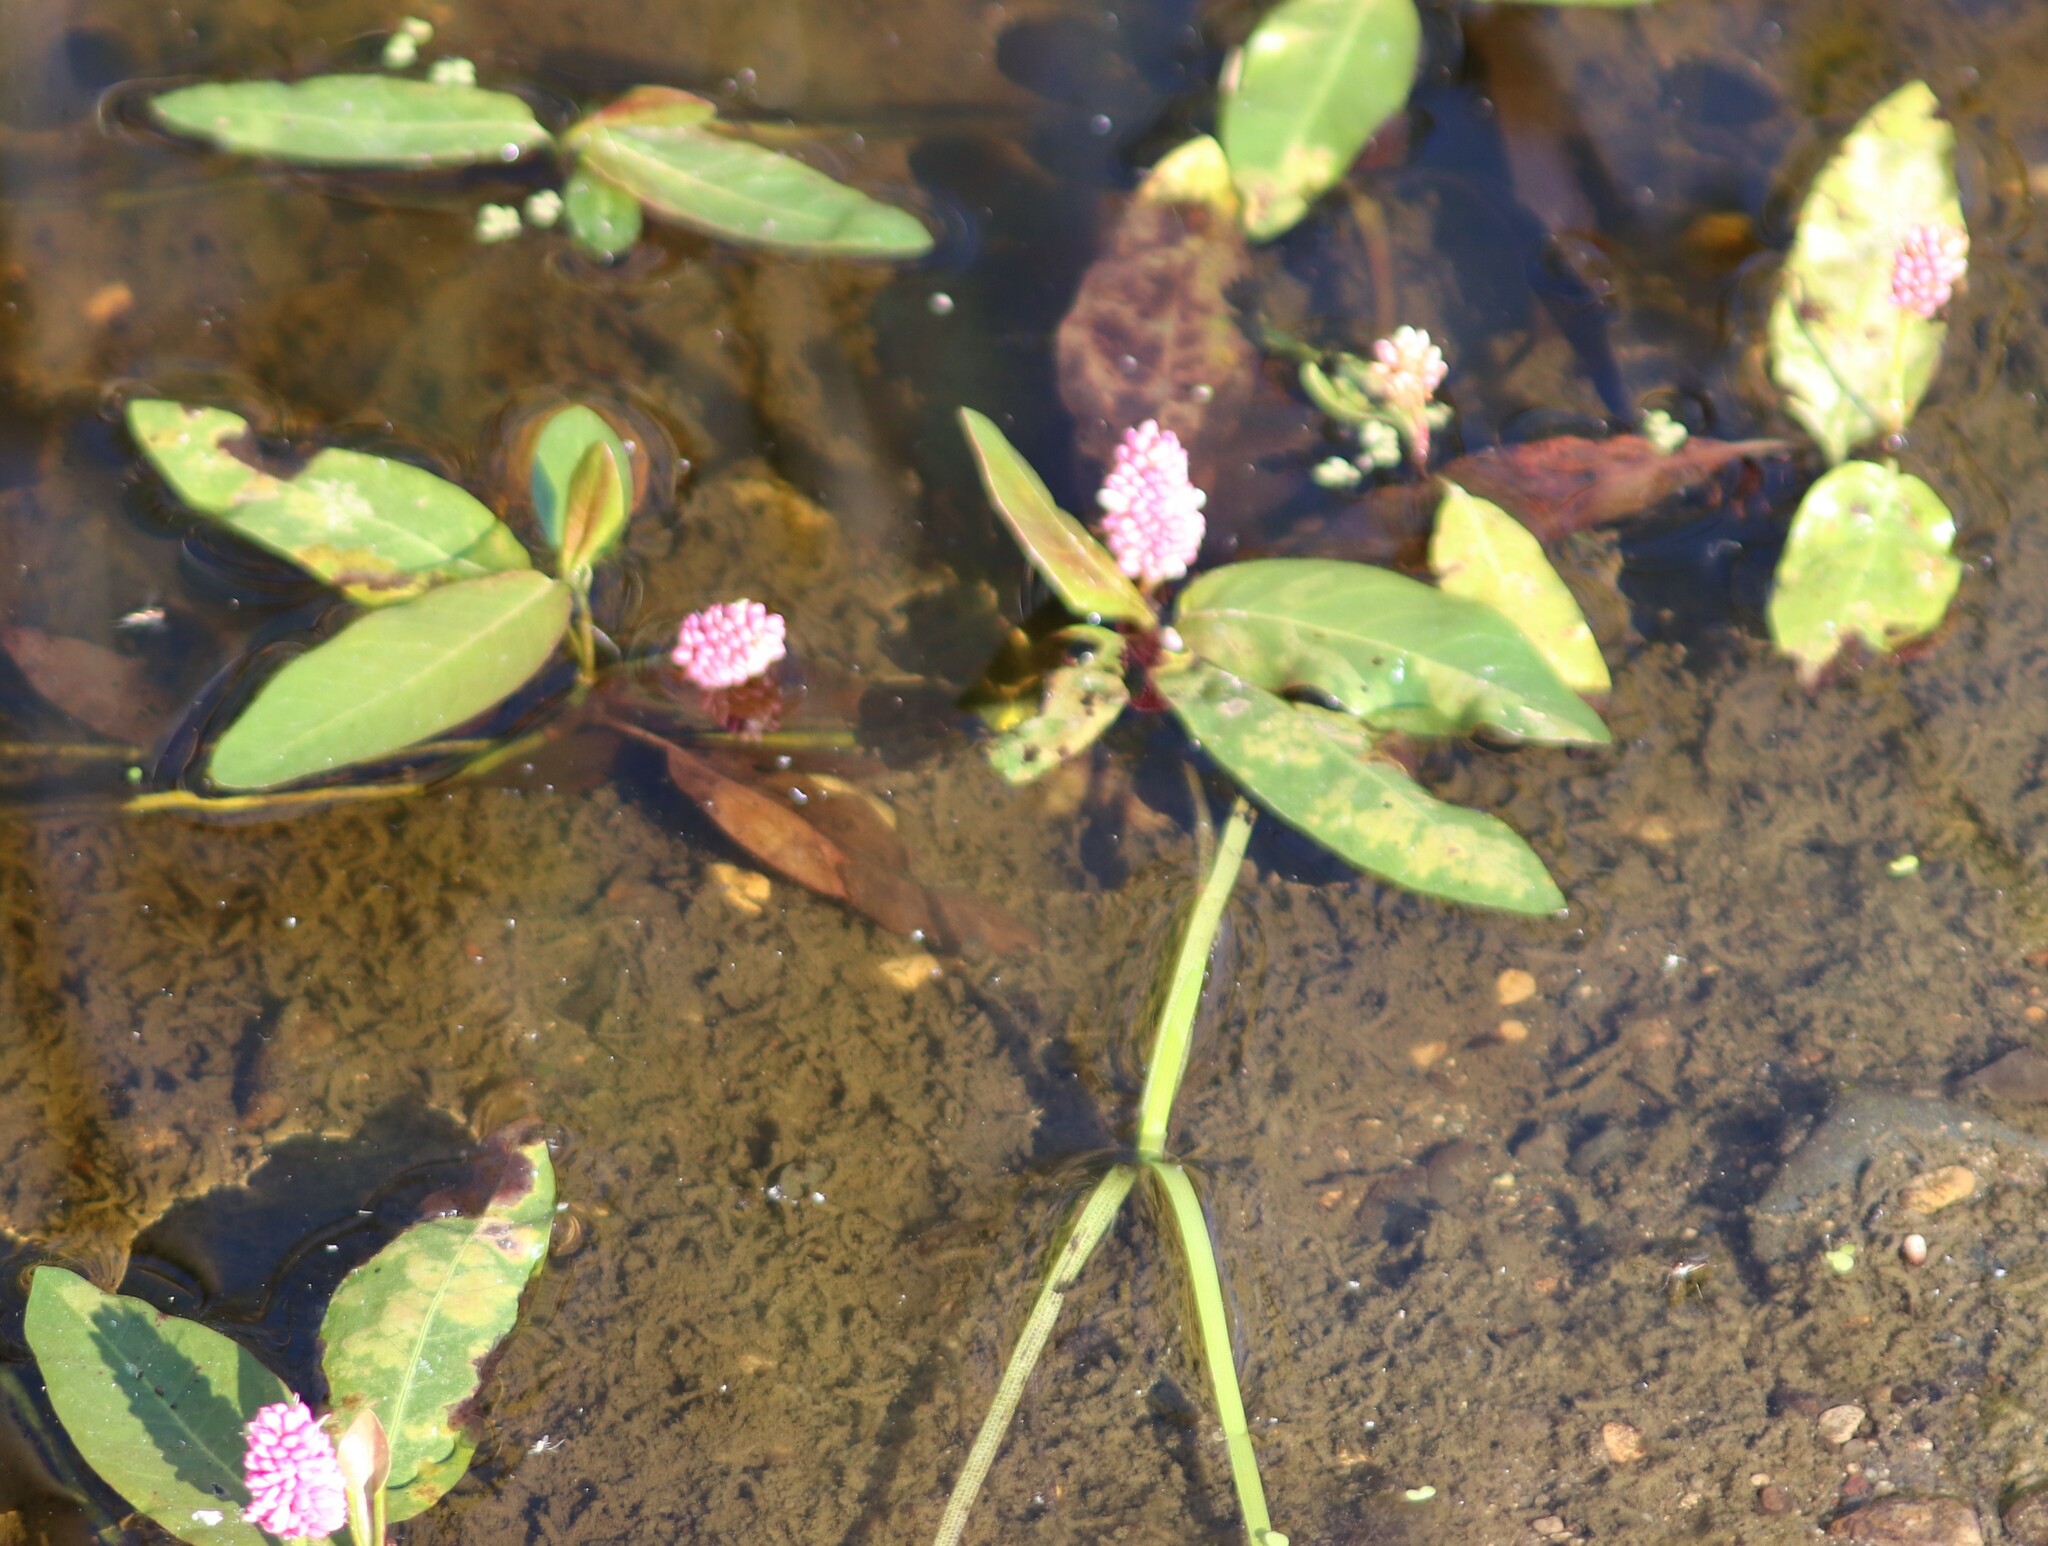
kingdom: Plantae
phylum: Tracheophyta
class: Magnoliopsida
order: Caryophyllales
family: Polygonaceae
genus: Persicaria
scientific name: Persicaria amphibia
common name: Amphibious bistort
